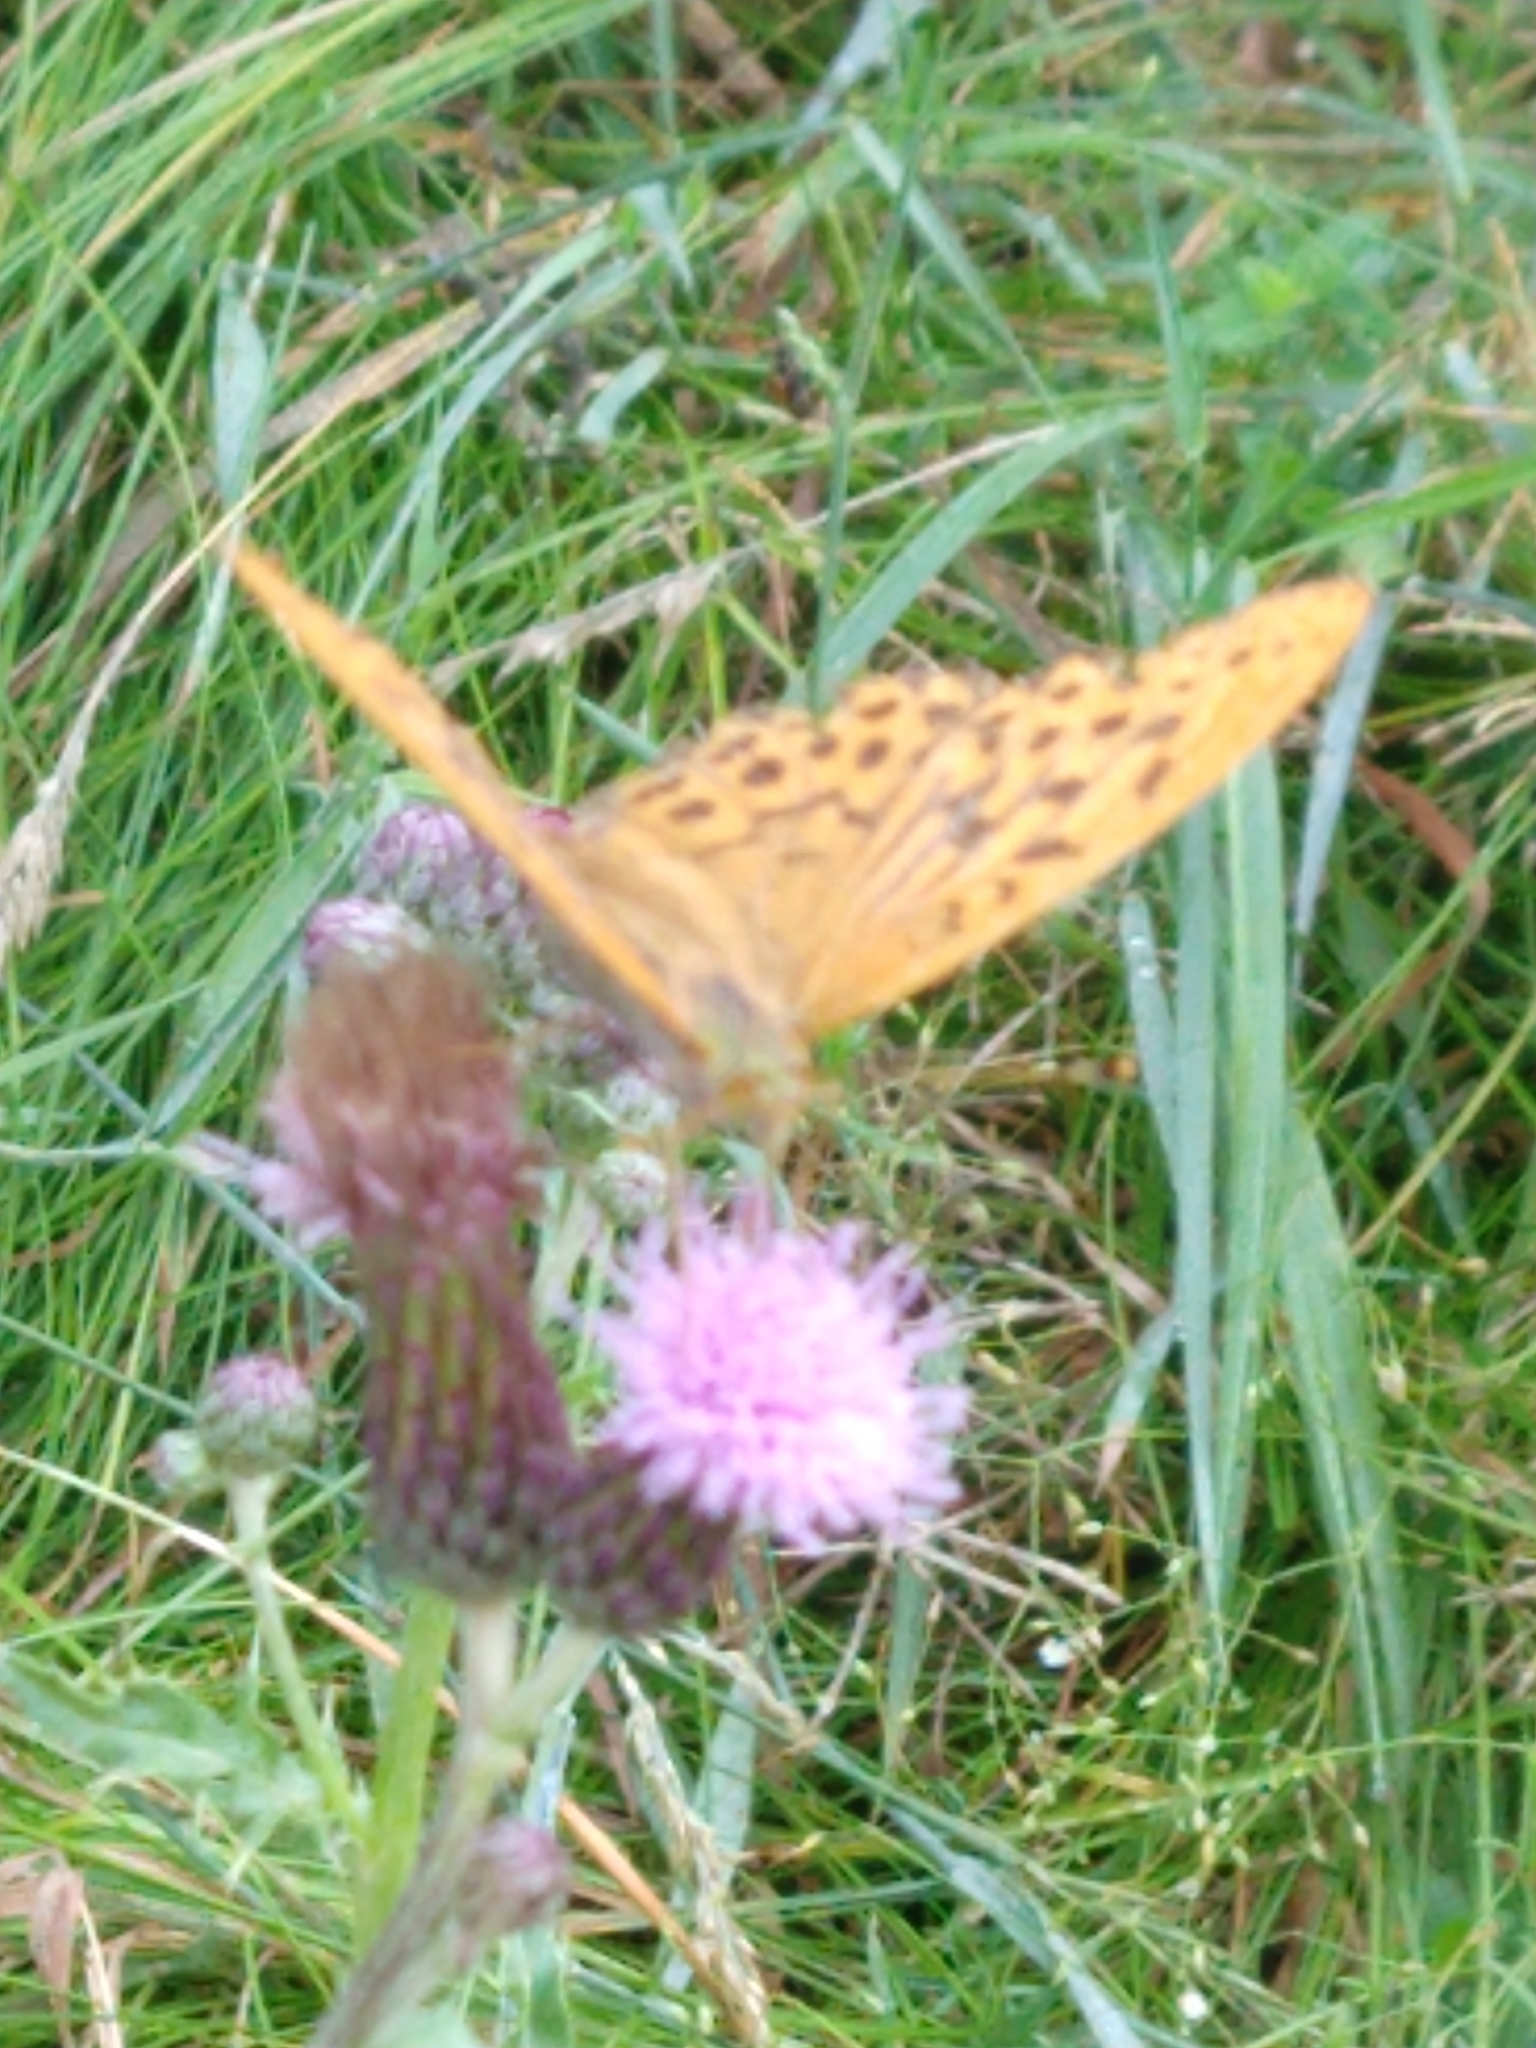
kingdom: Animalia
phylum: Arthropoda
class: Insecta
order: Lepidoptera
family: Nymphalidae
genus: Argynnis
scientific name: Argynnis paphia
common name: Silver-washed fritillary
